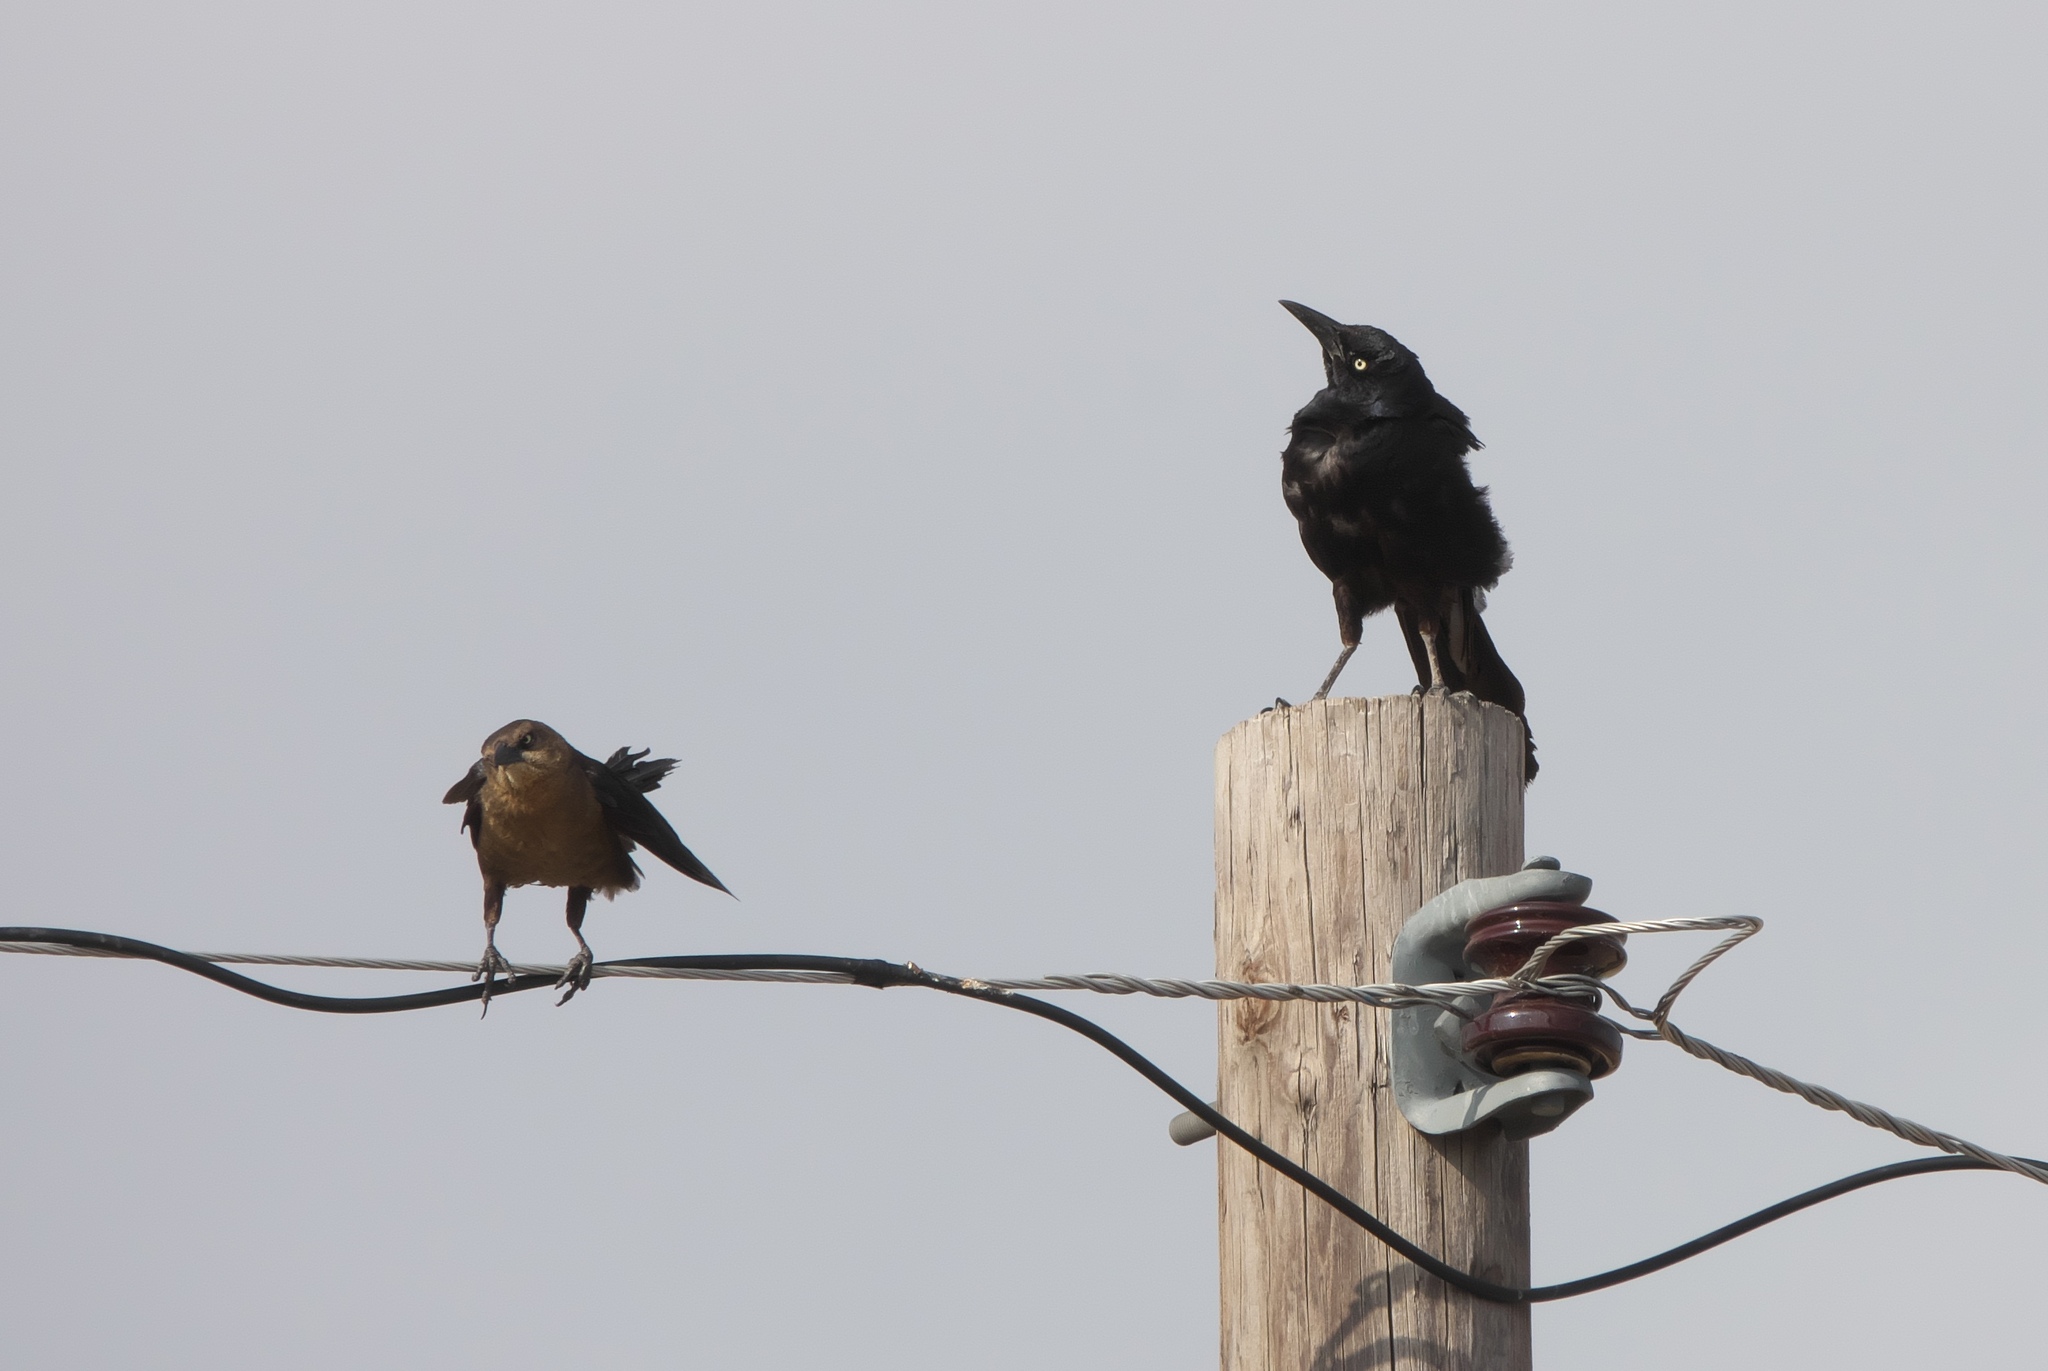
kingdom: Animalia
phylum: Chordata
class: Aves
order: Passeriformes
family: Icteridae
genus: Quiscalus
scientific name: Quiscalus mexicanus
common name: Great-tailed grackle
